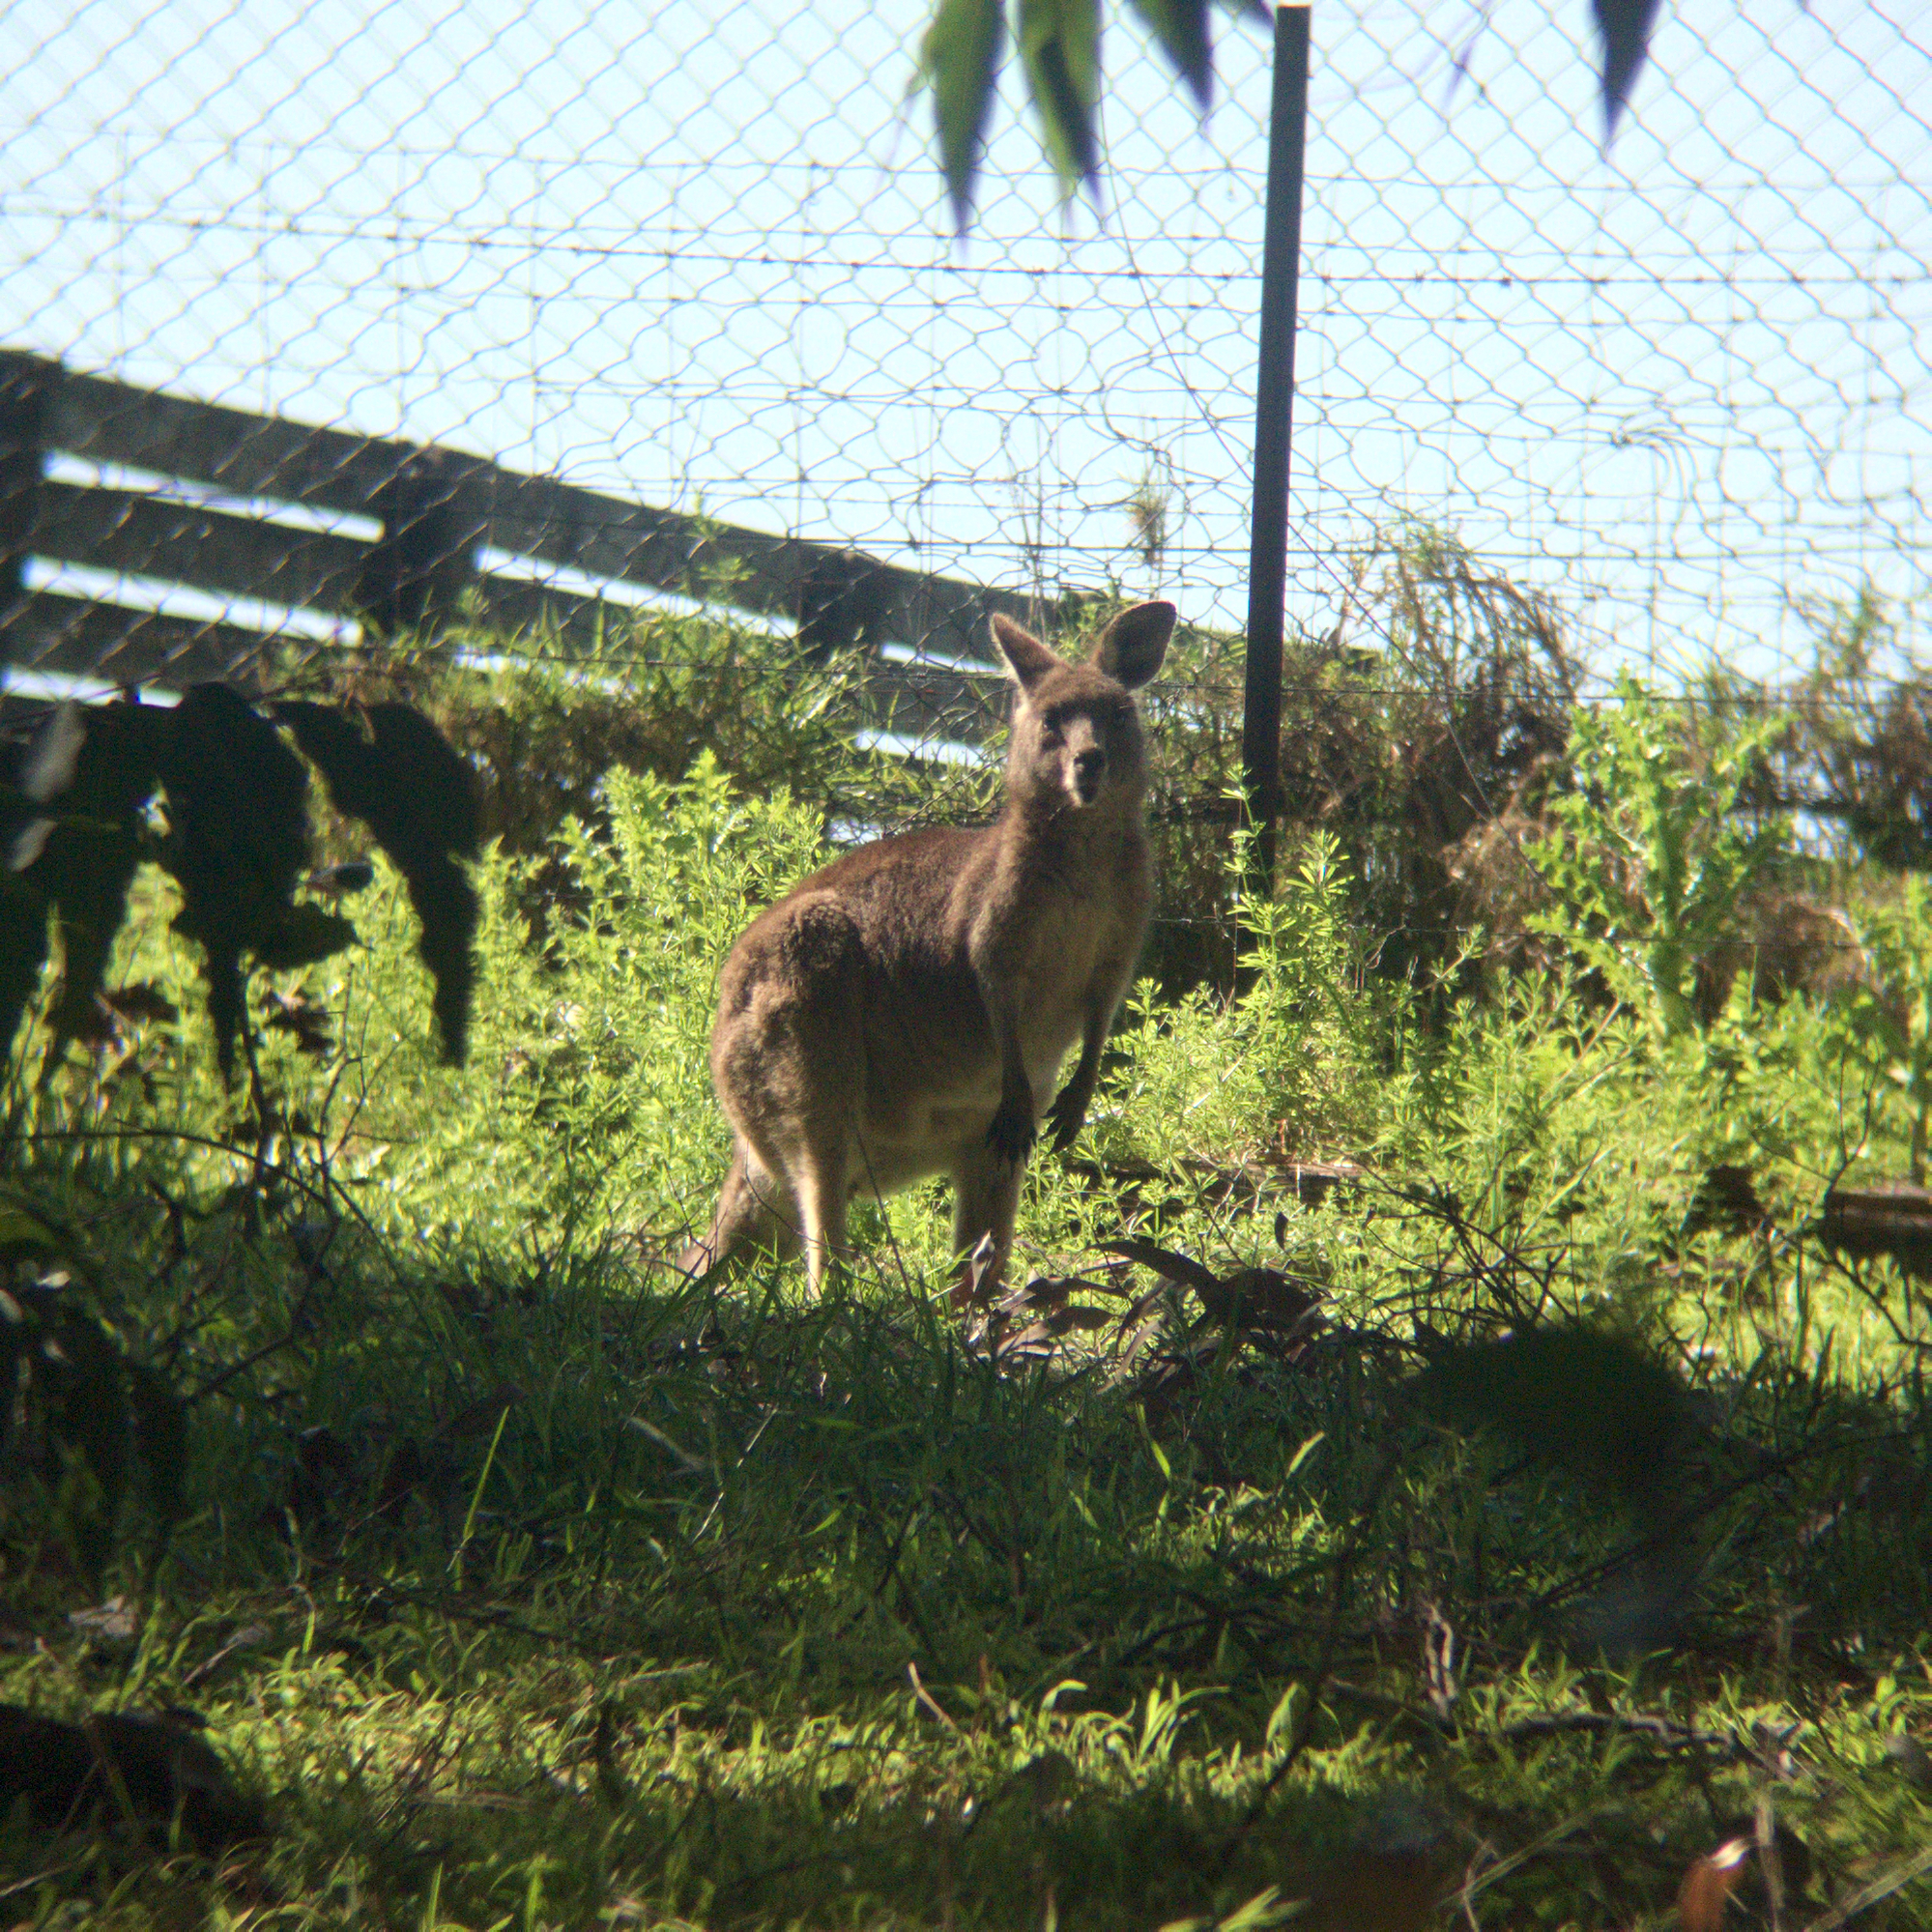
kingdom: Animalia
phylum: Chordata
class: Mammalia
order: Diprotodontia
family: Macropodidae
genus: Macropus
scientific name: Macropus giganteus
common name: Eastern grey kangaroo
